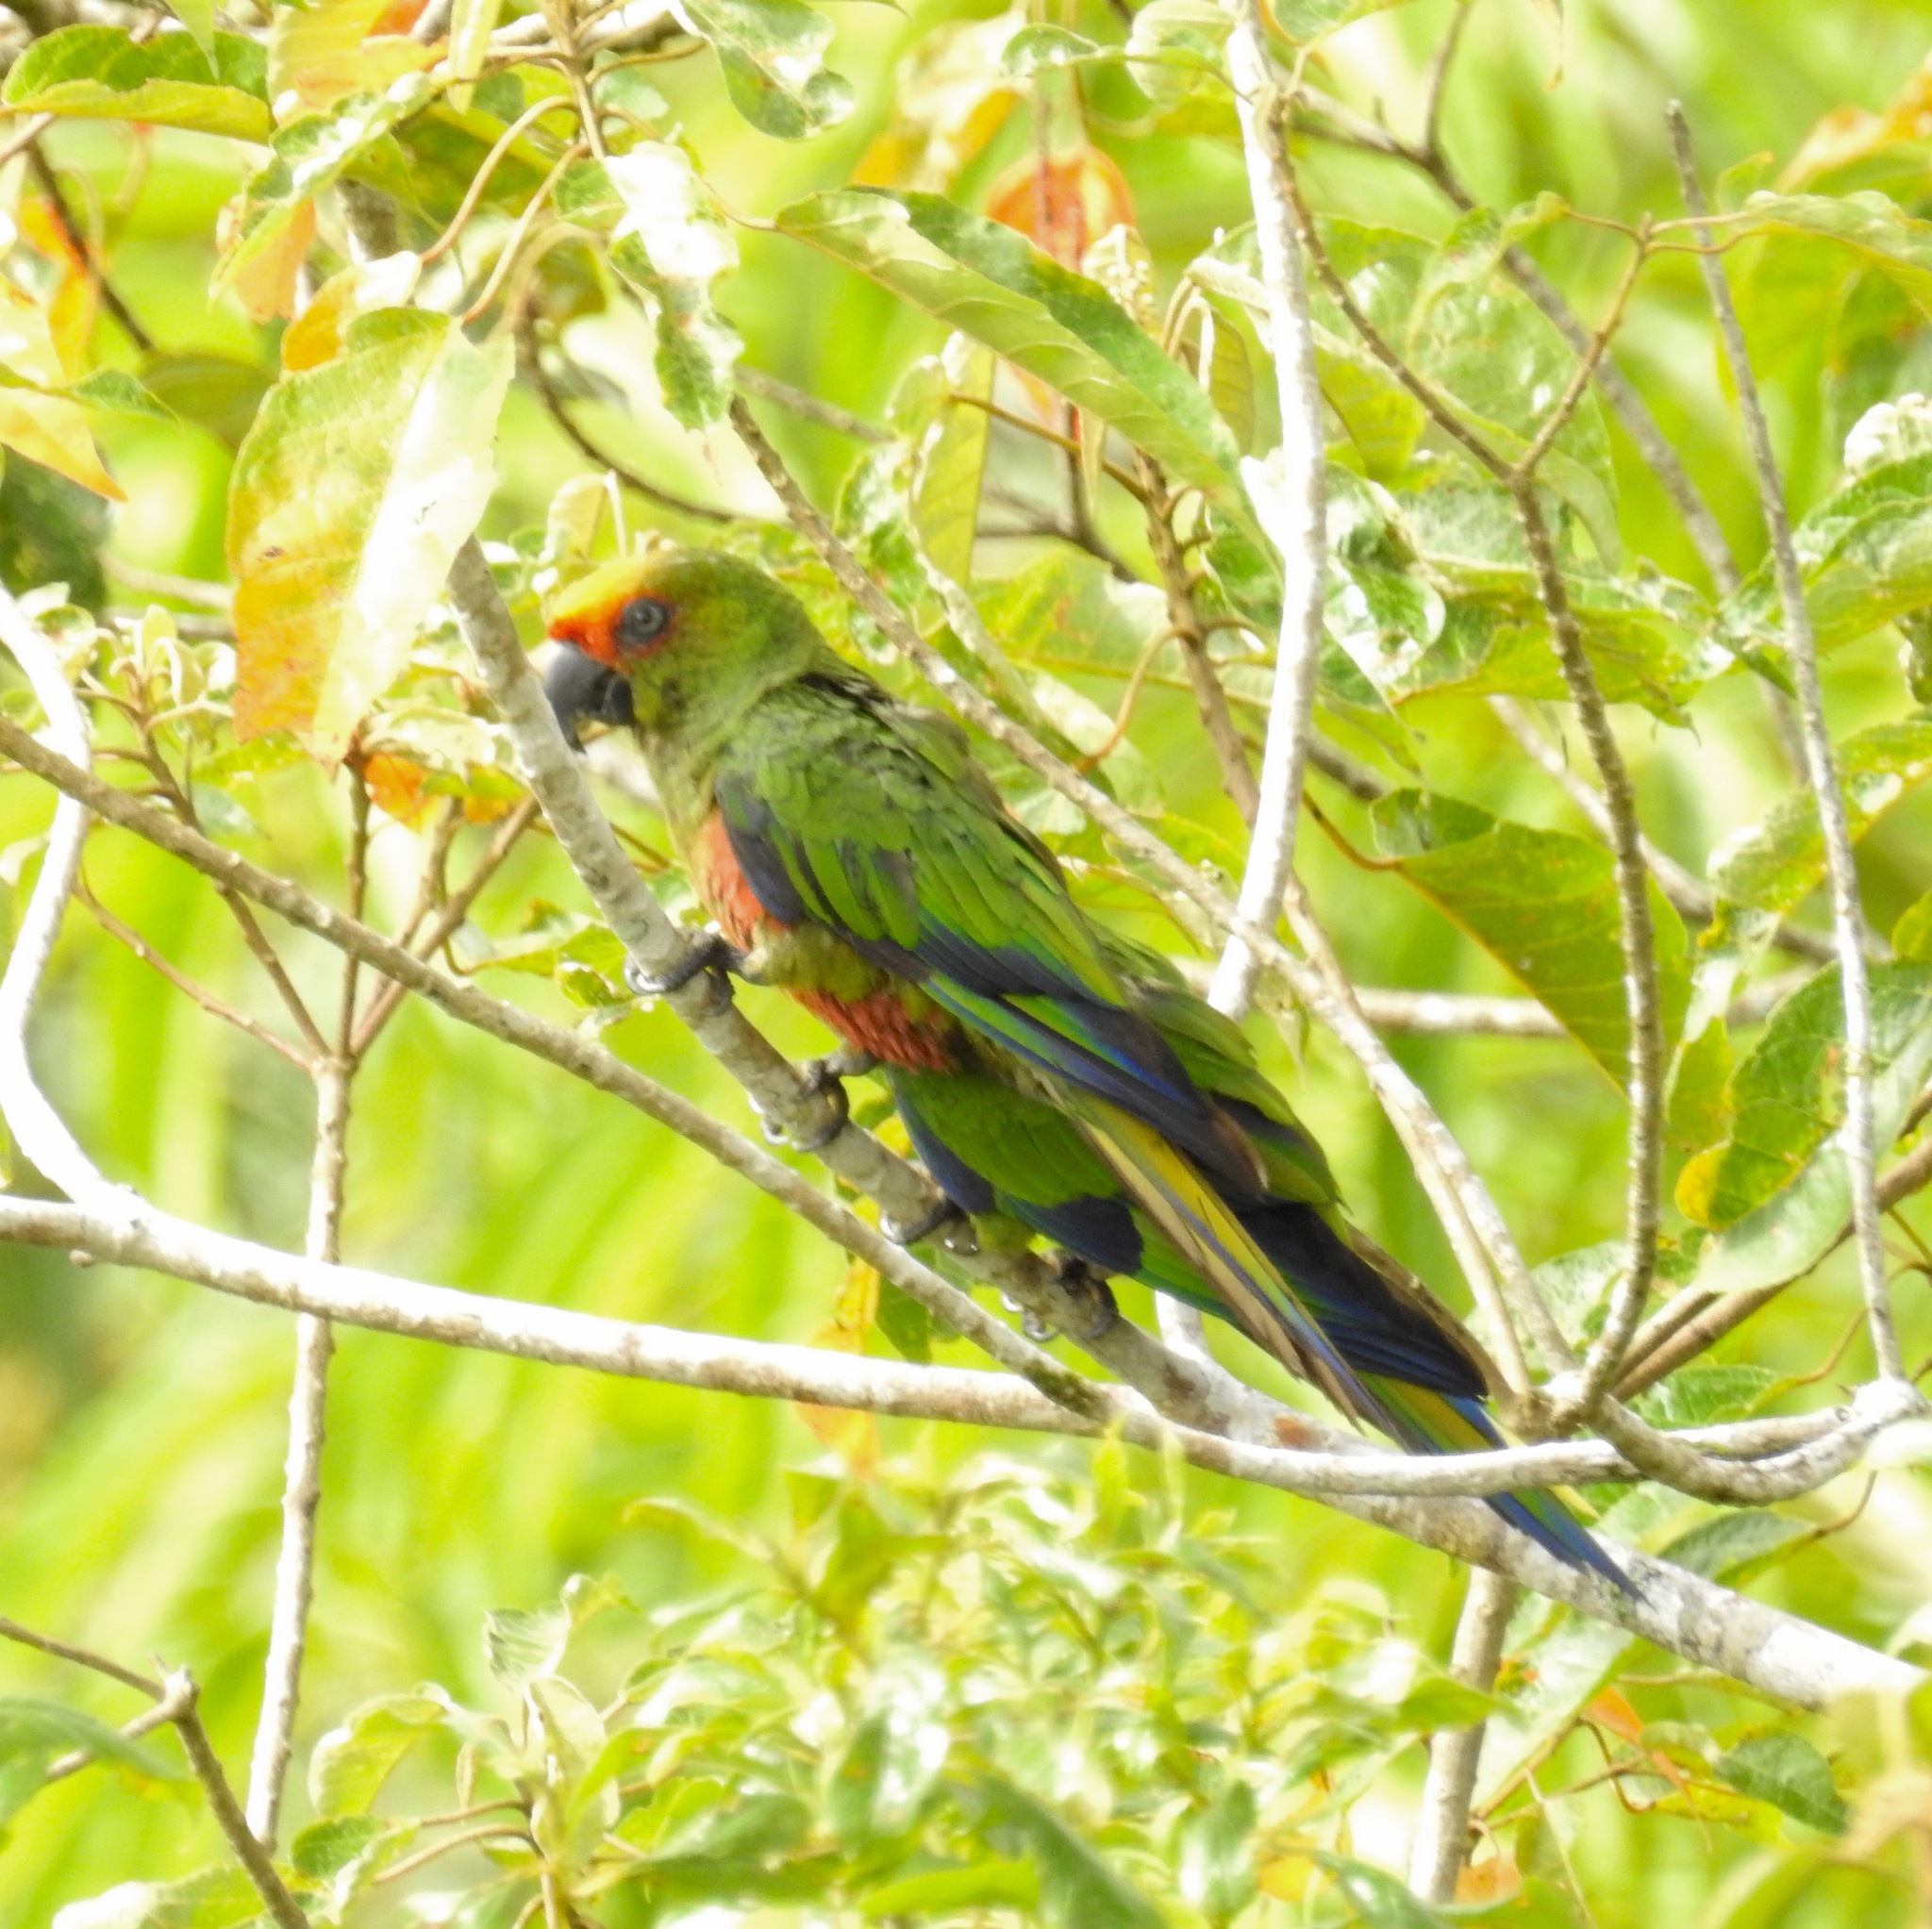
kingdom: Animalia
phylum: Chordata
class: Aves
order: Psittaciformes
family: Psittacidae
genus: Aratinga
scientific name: Aratinga auricapillus
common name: Golden-capped parakeet
